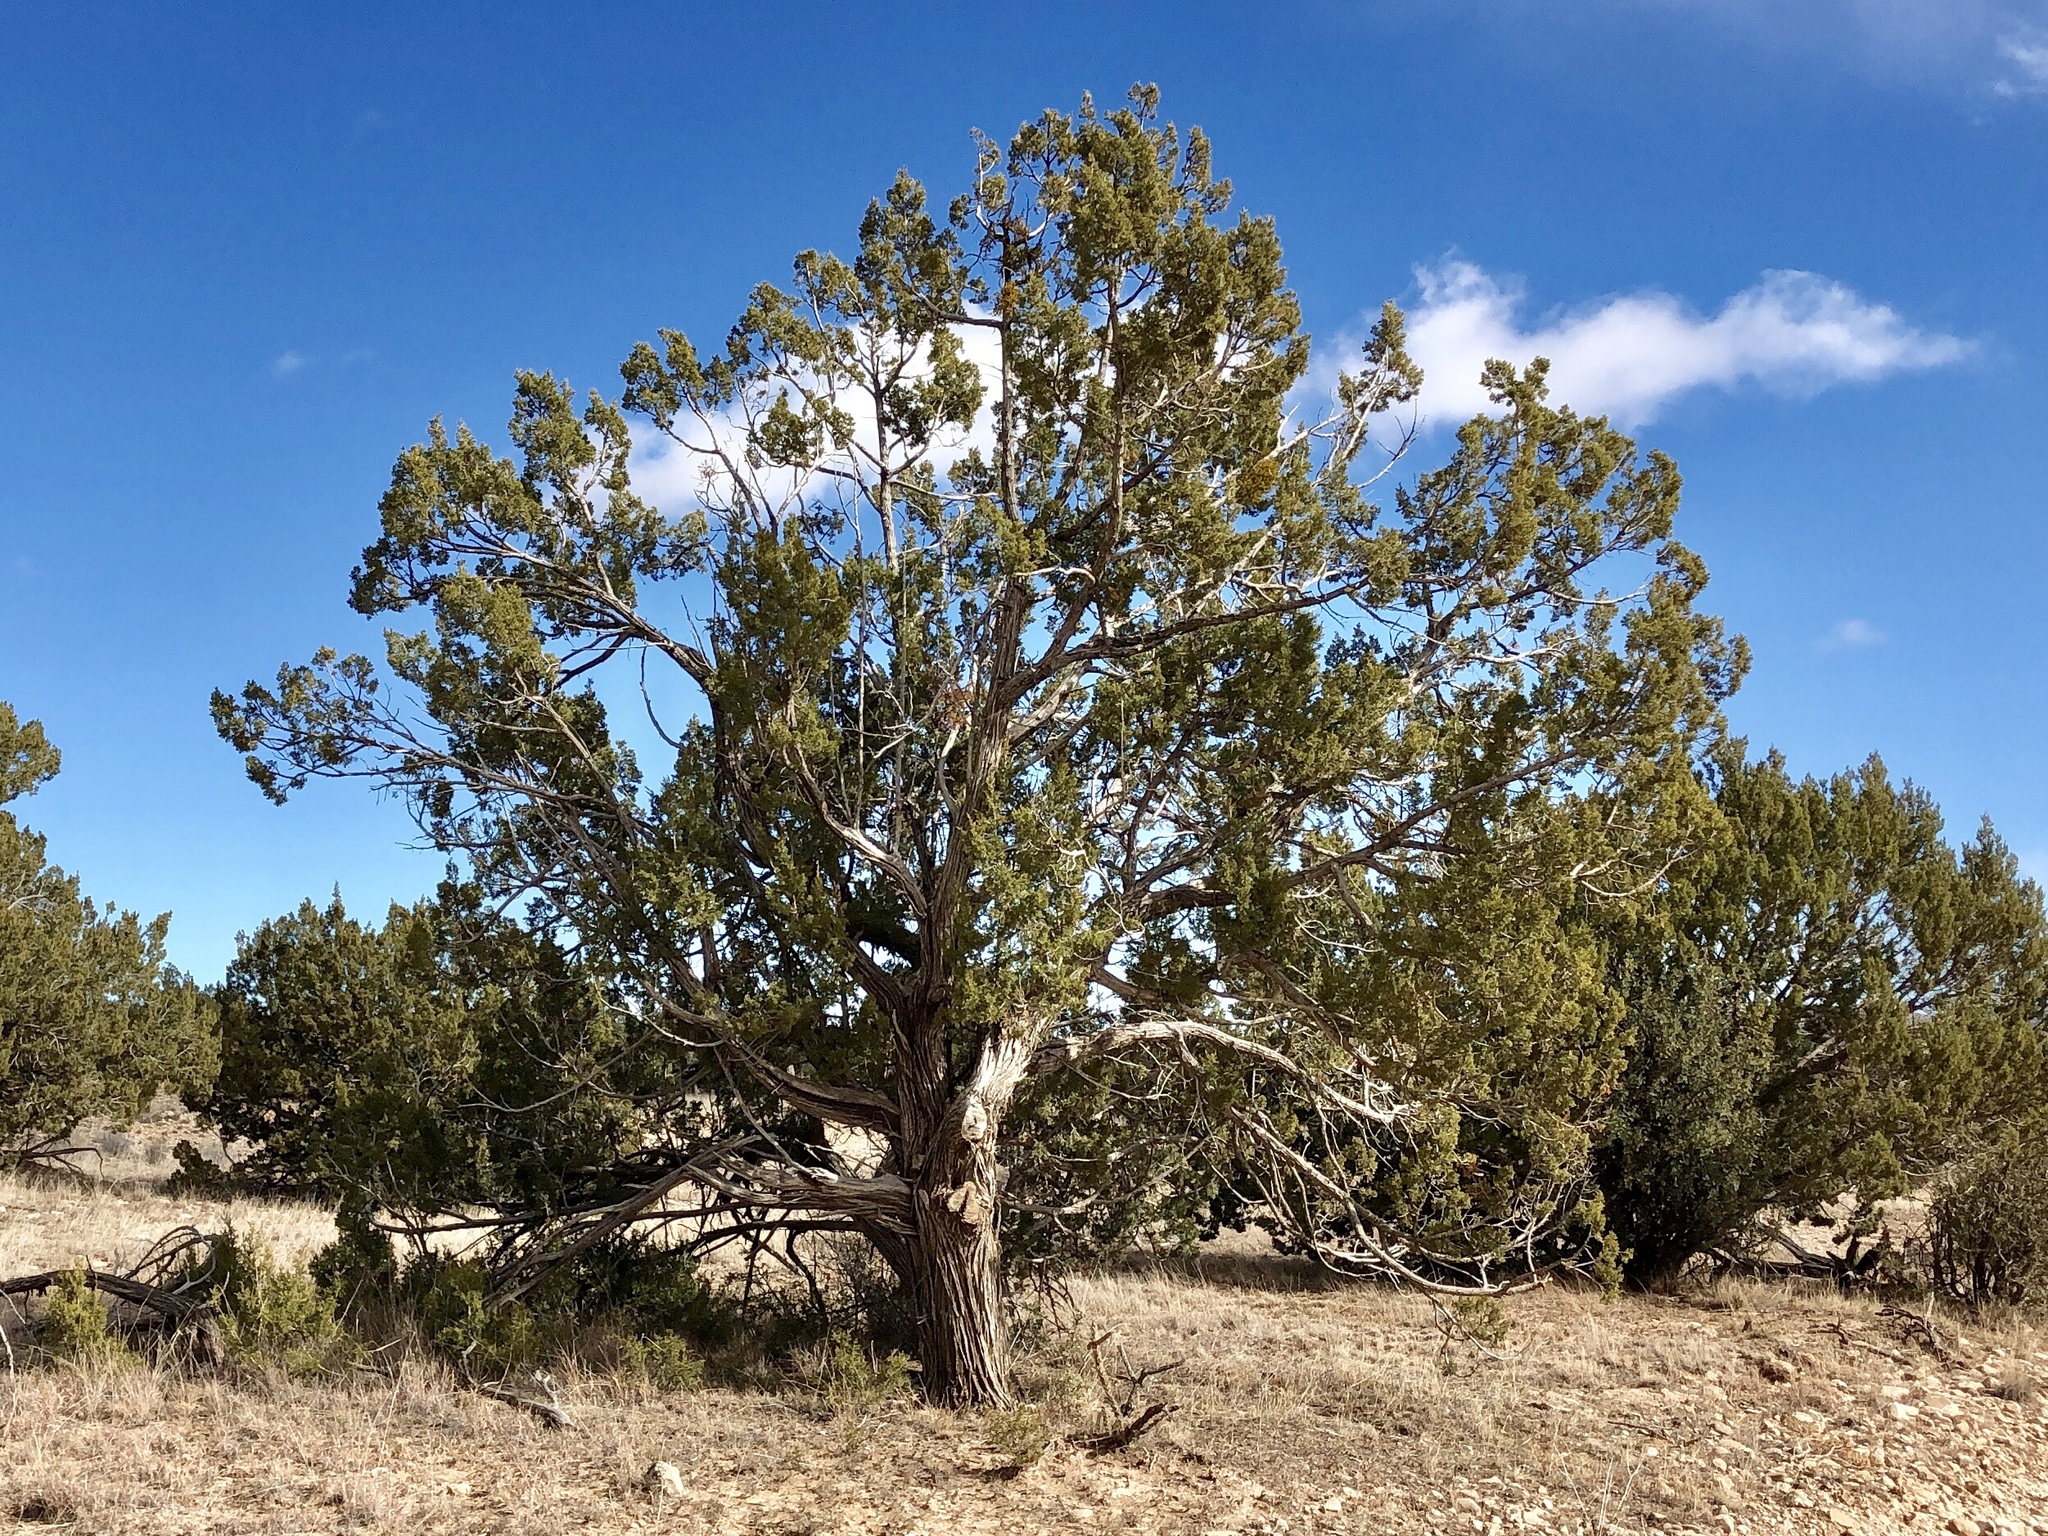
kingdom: Plantae
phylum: Tracheophyta
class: Pinopsida
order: Pinales
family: Cupressaceae
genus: Juniperus
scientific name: Juniperus monosperma
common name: One-seed juniper
